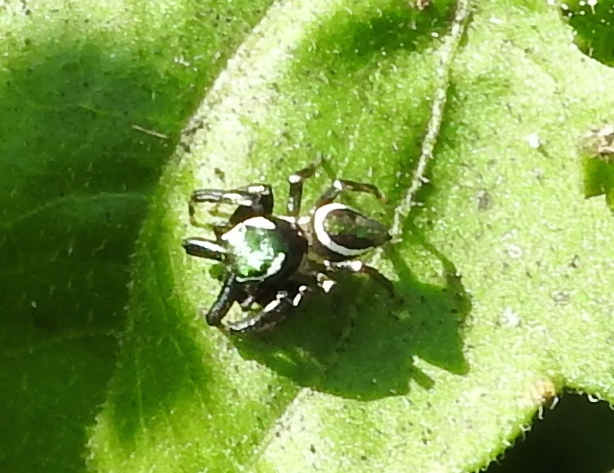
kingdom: Animalia
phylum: Arthropoda
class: Arachnida
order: Araneae
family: Salticidae
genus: Messua
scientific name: Messua limbata
